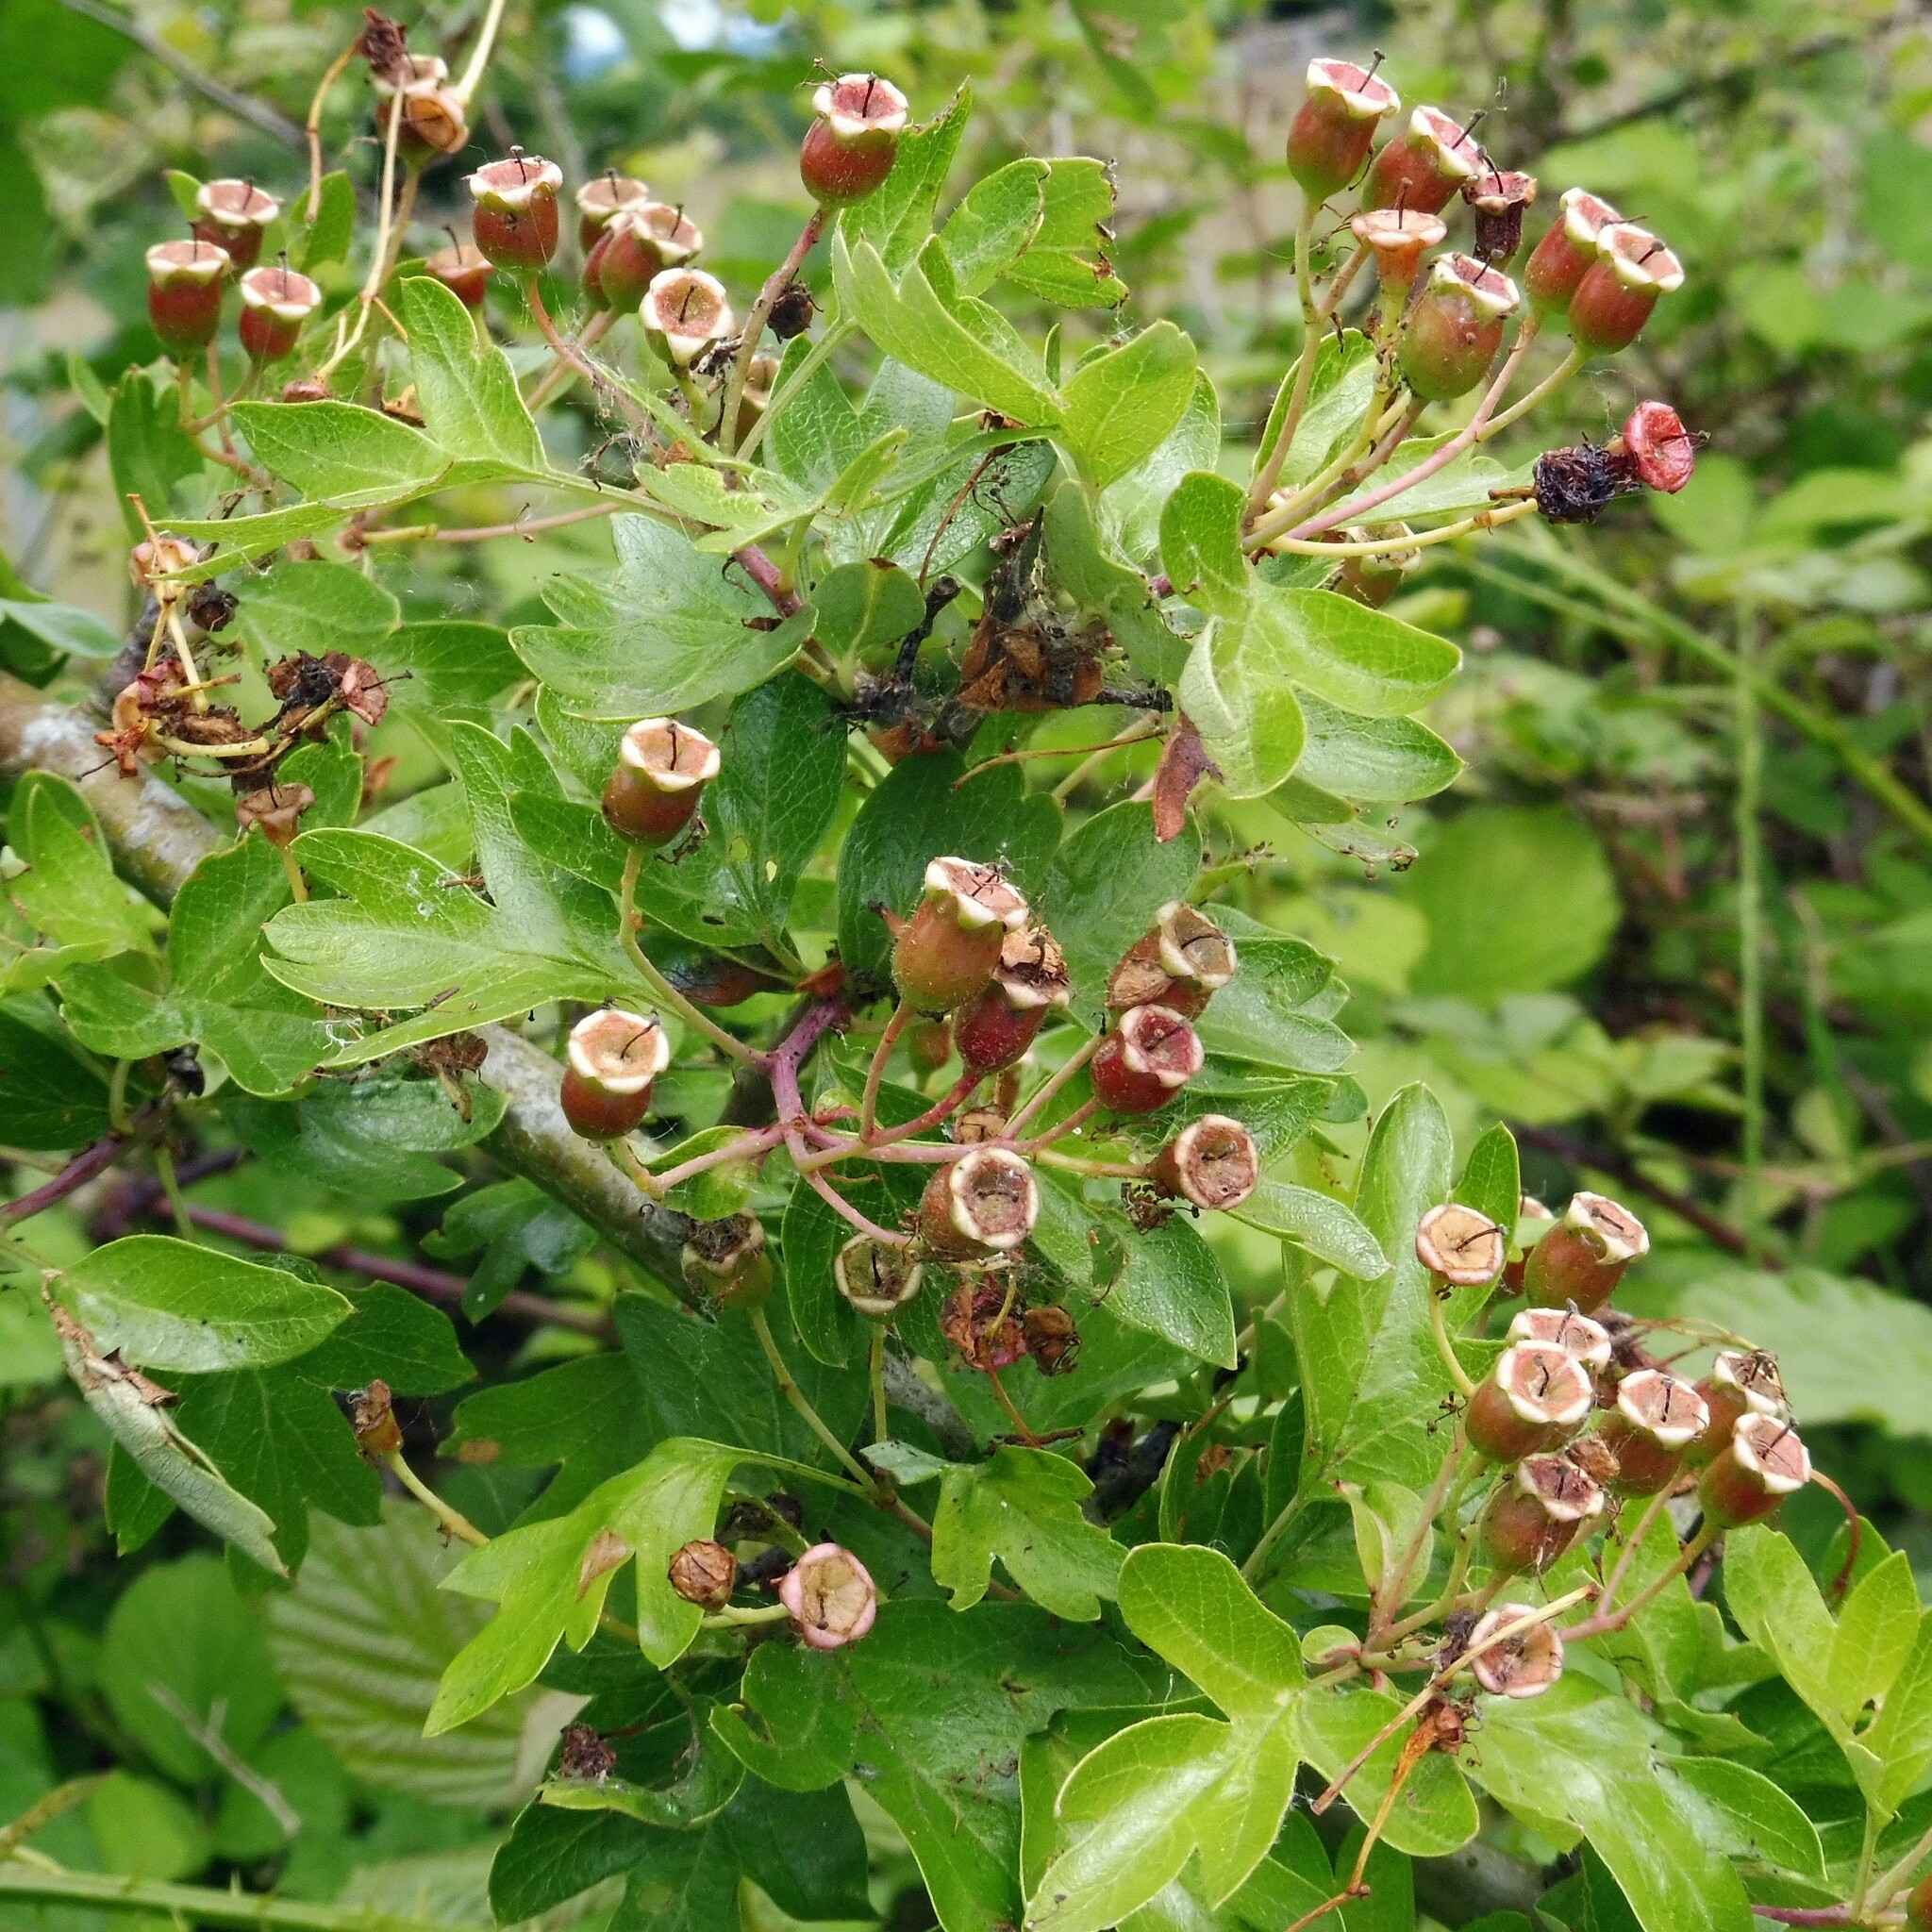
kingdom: Plantae
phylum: Tracheophyta
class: Magnoliopsida
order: Rosales
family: Rosaceae
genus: Crataegus
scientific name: Crataegus monogyna
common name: Hawthorn
